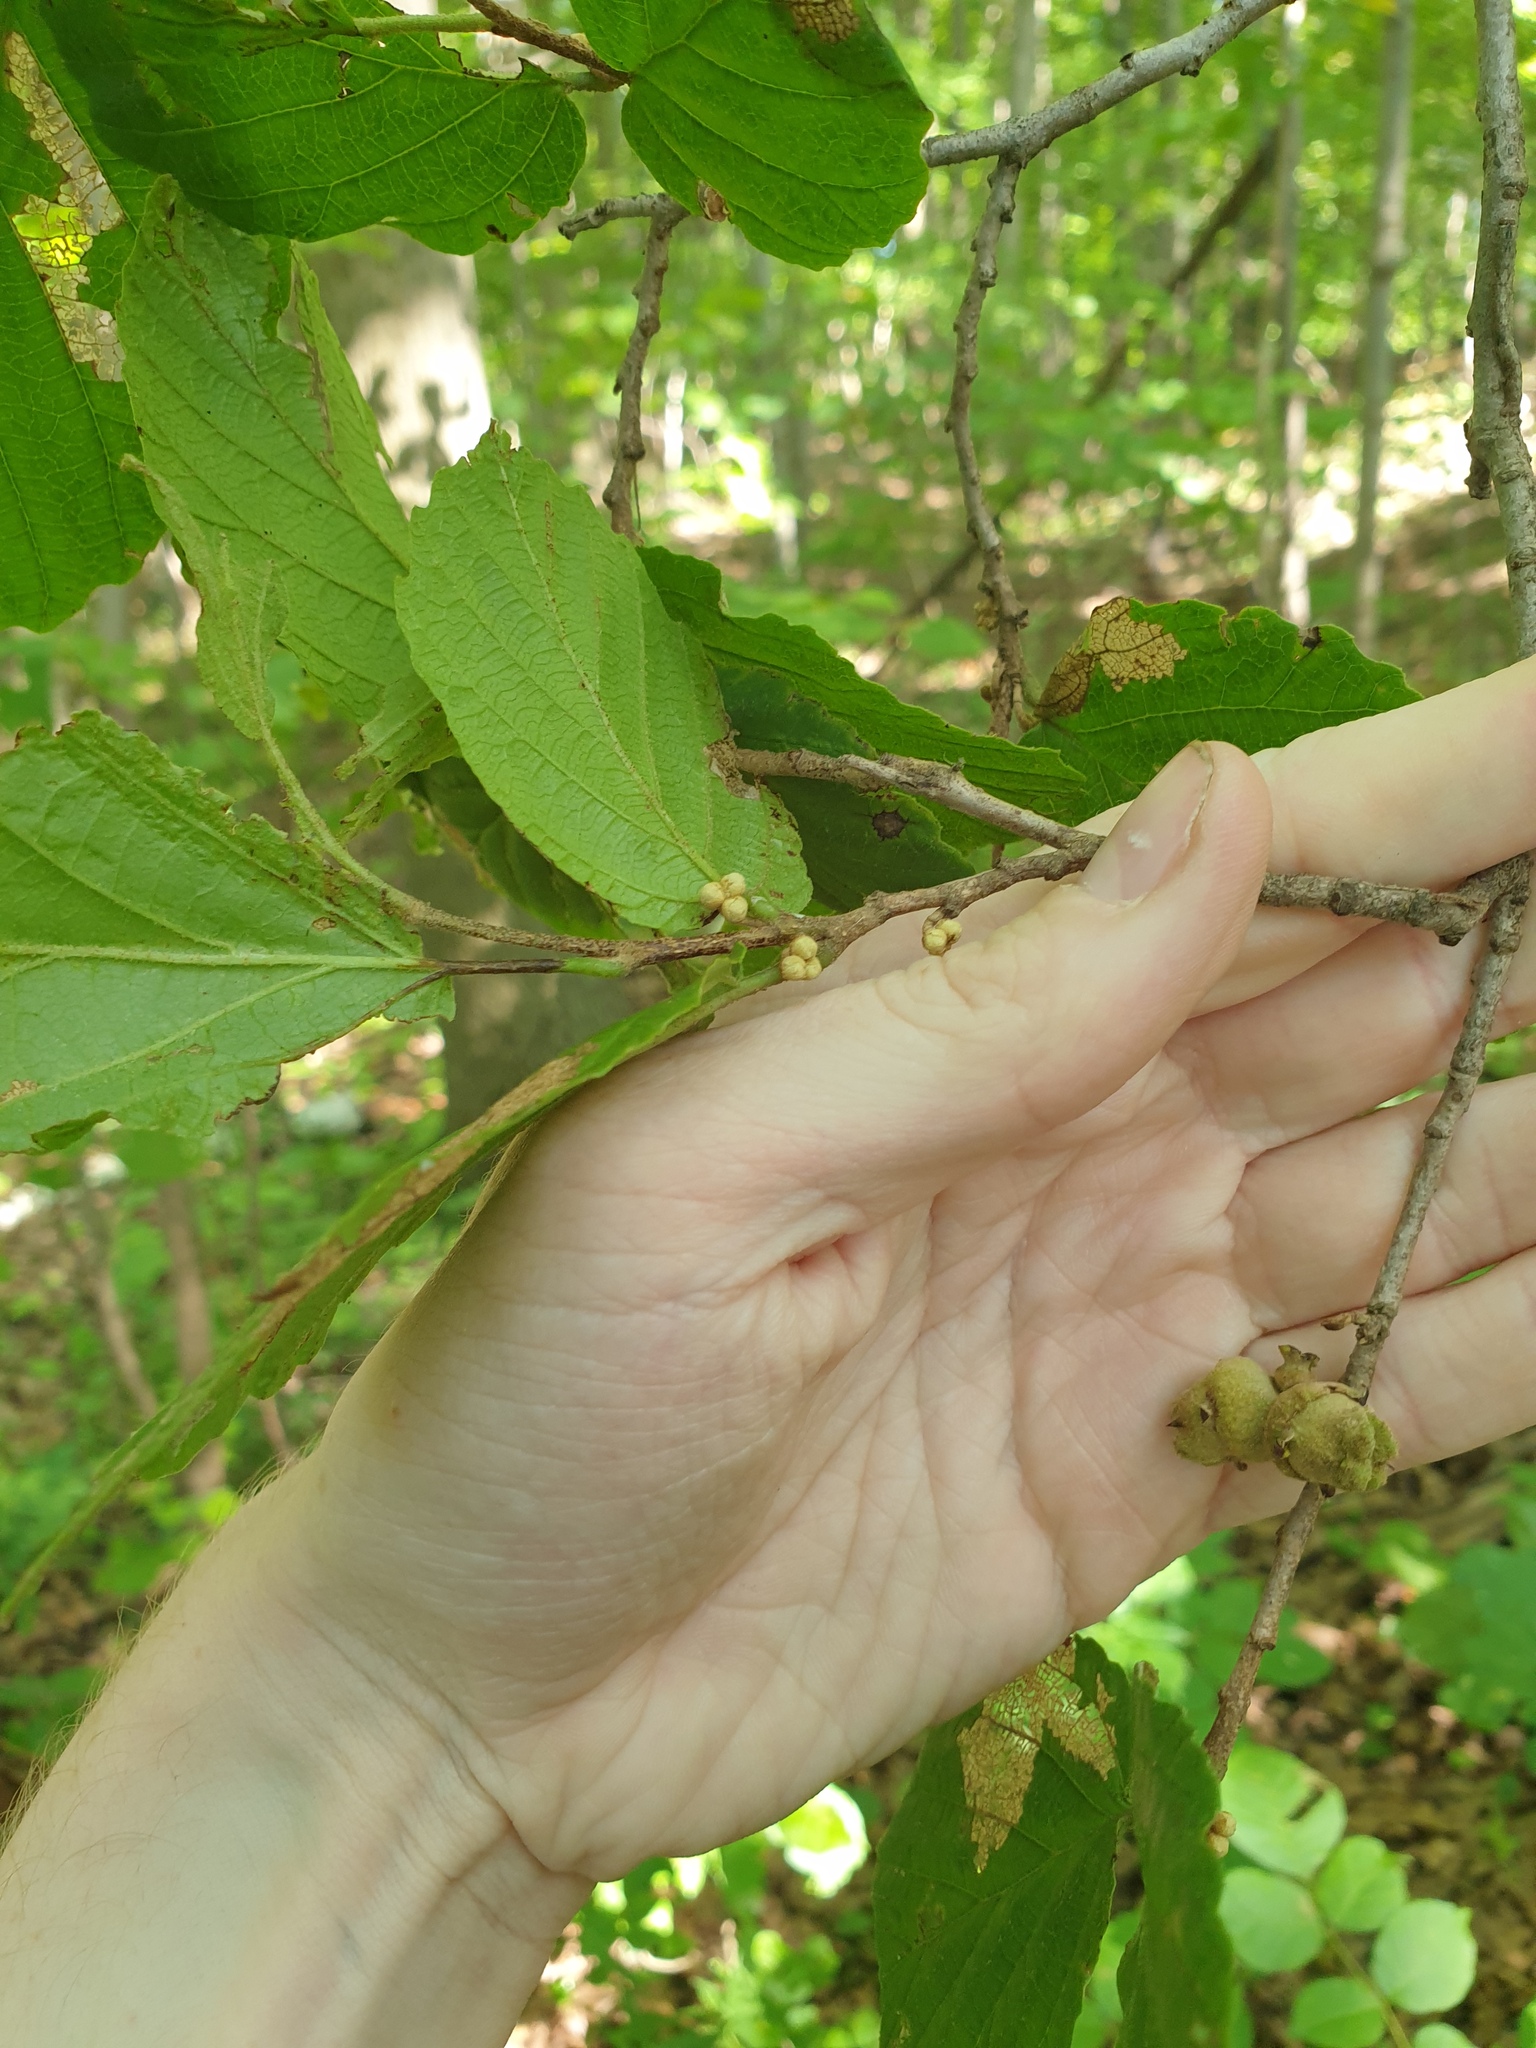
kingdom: Plantae
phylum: Tracheophyta
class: Magnoliopsida
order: Saxifragales
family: Hamamelidaceae
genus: Hamamelis
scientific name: Hamamelis virginiana
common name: Witch-hazel
